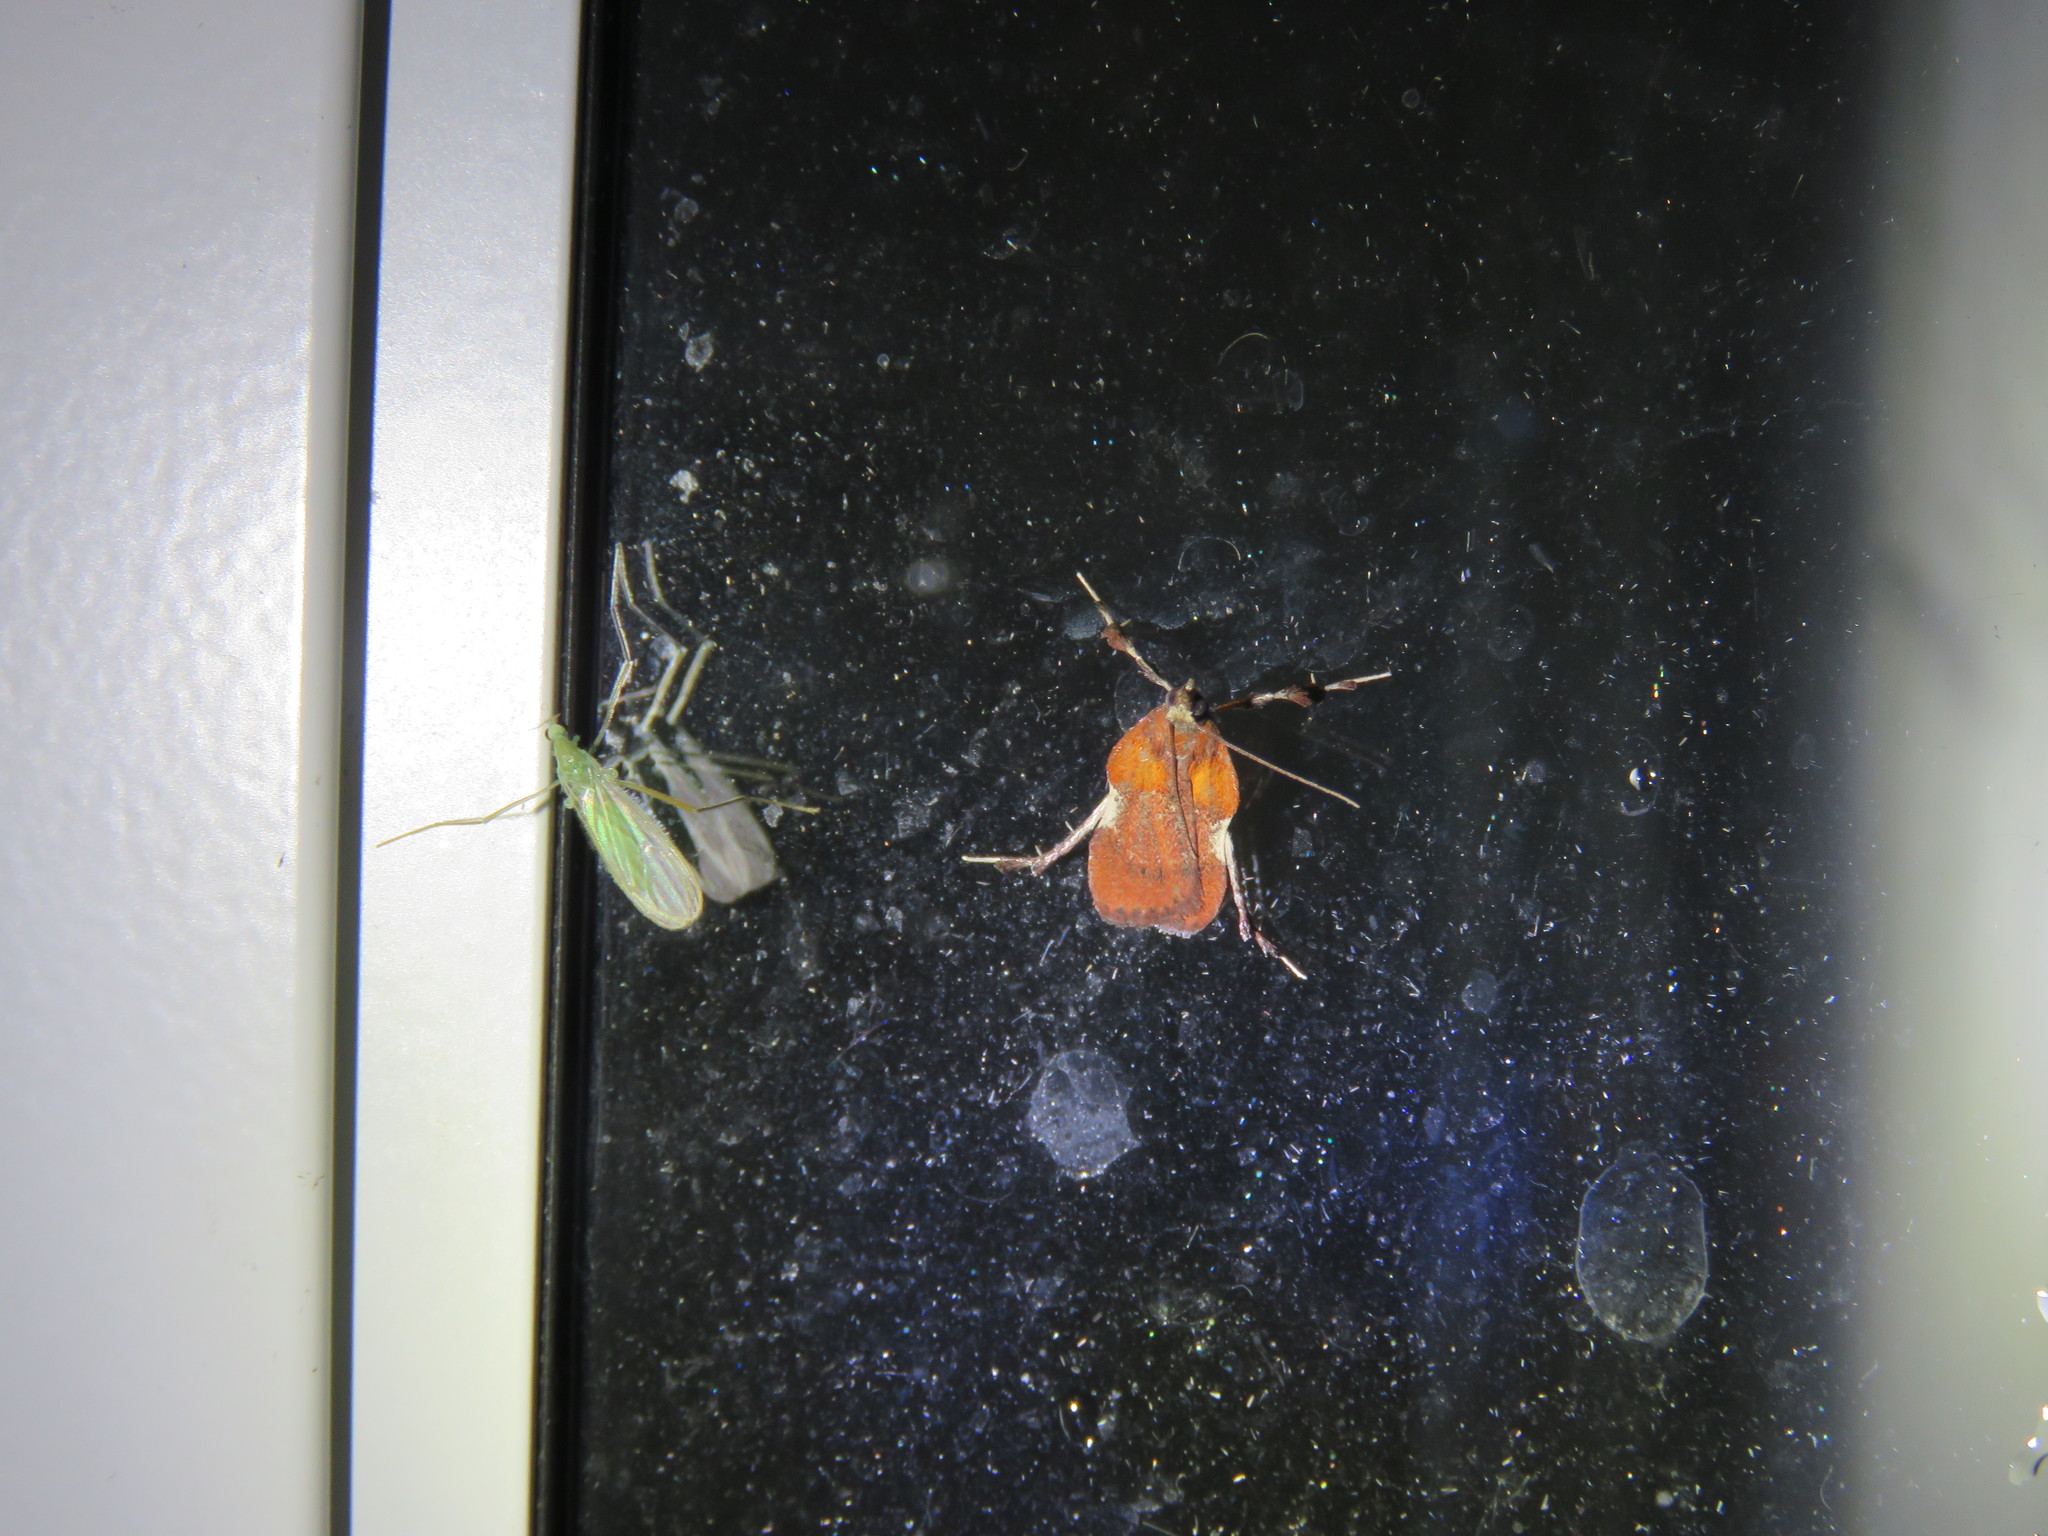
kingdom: Animalia
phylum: Arthropoda
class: Insecta
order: Lepidoptera
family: Pyralidae
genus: Galasa
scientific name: Galasa nigrinodis
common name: Boxwood leaftier moth
